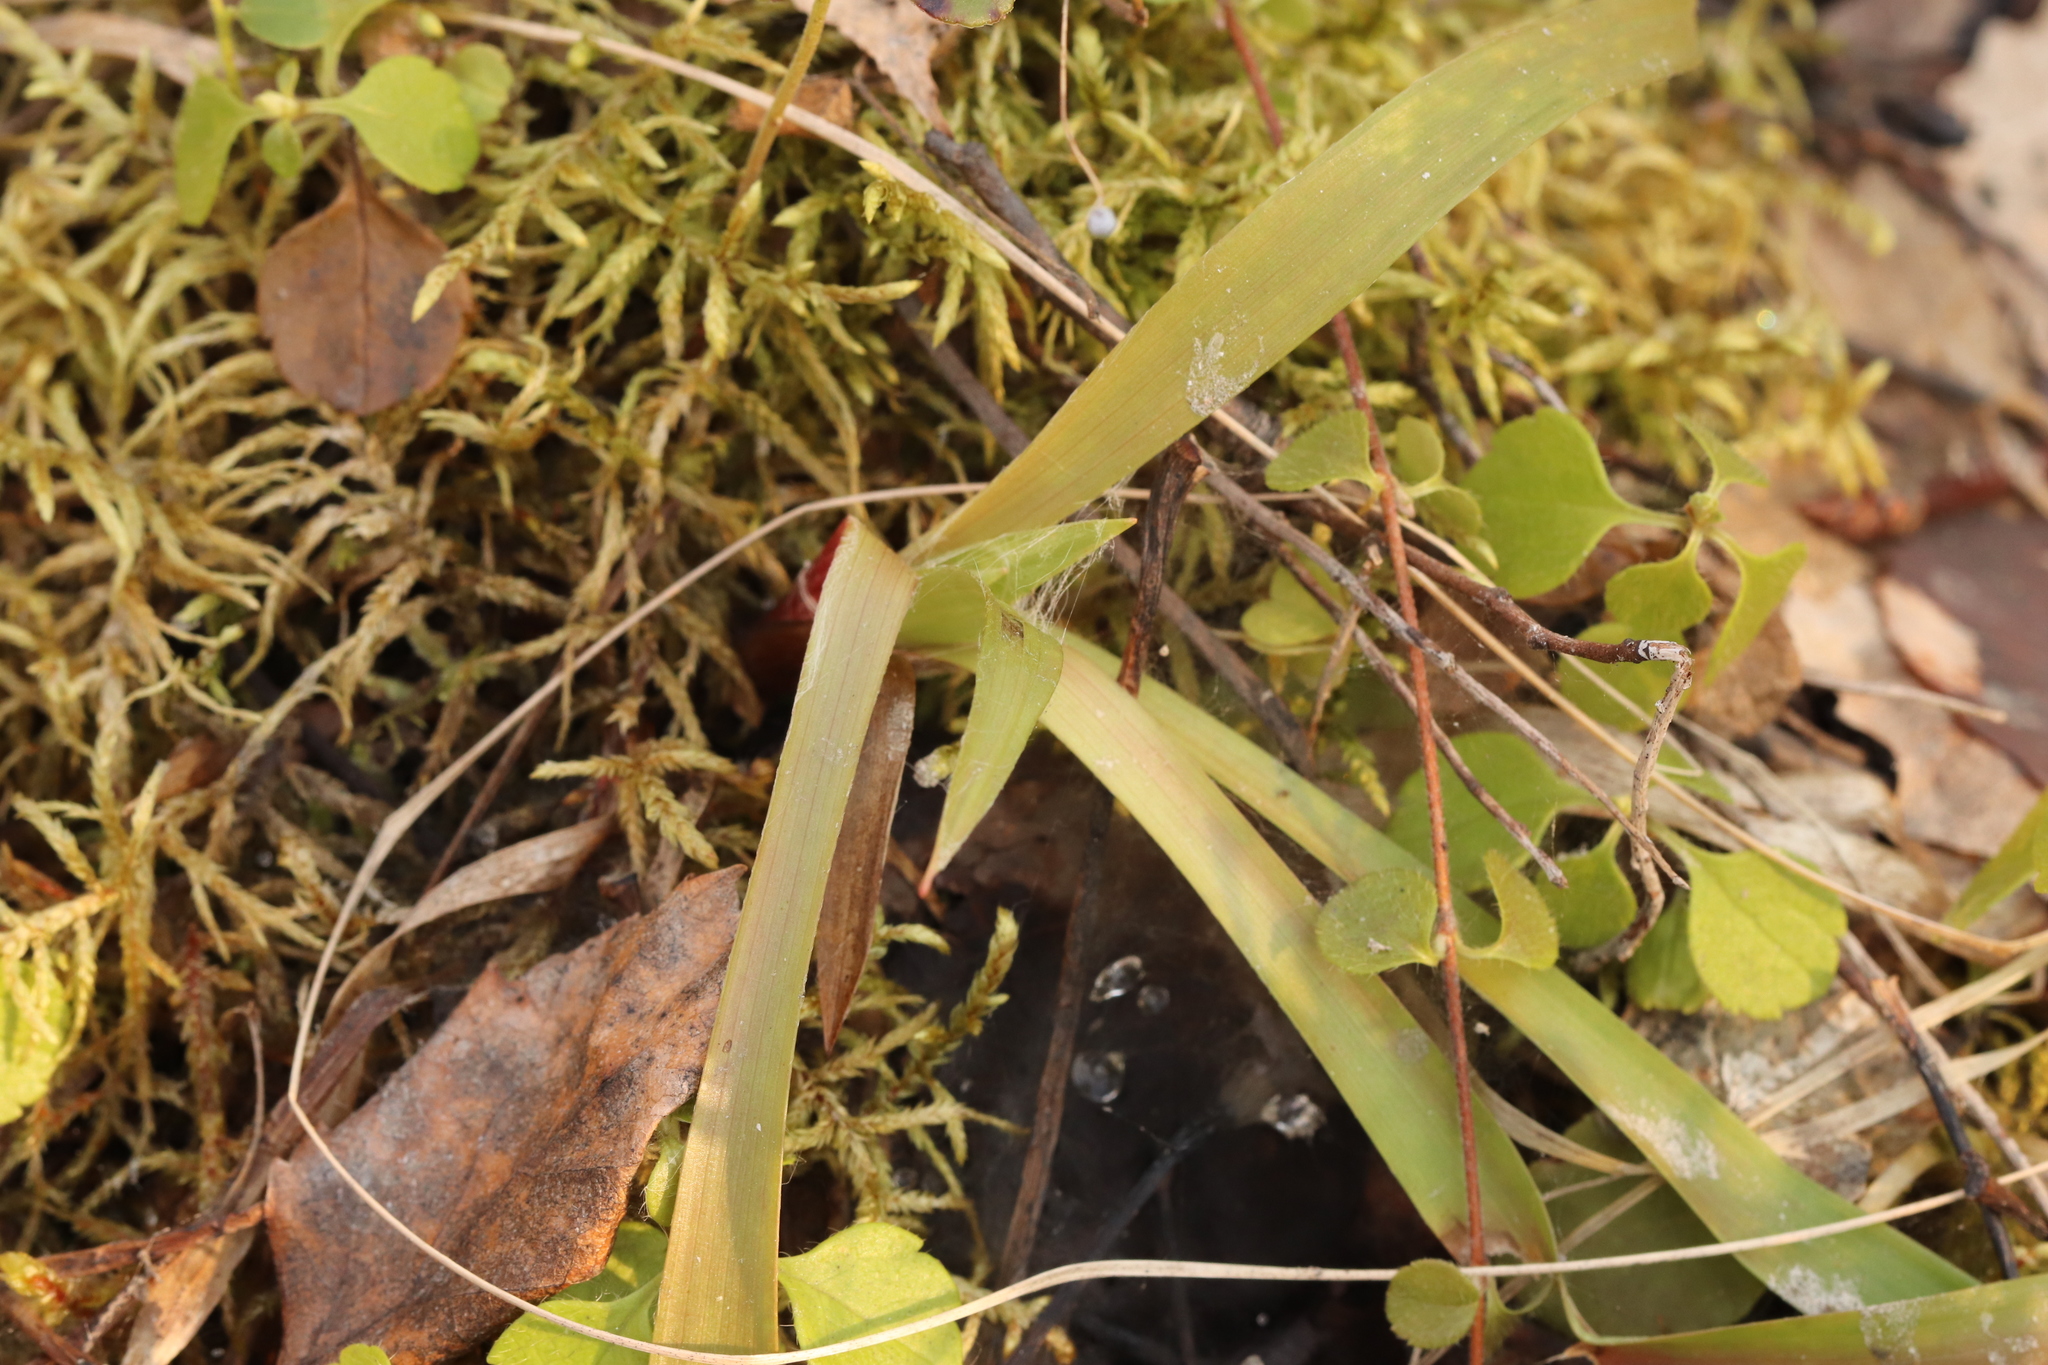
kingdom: Plantae
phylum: Tracheophyta
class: Liliopsida
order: Poales
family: Juncaceae
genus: Luzula
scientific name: Luzula pilosa
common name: Hairy wood-rush
